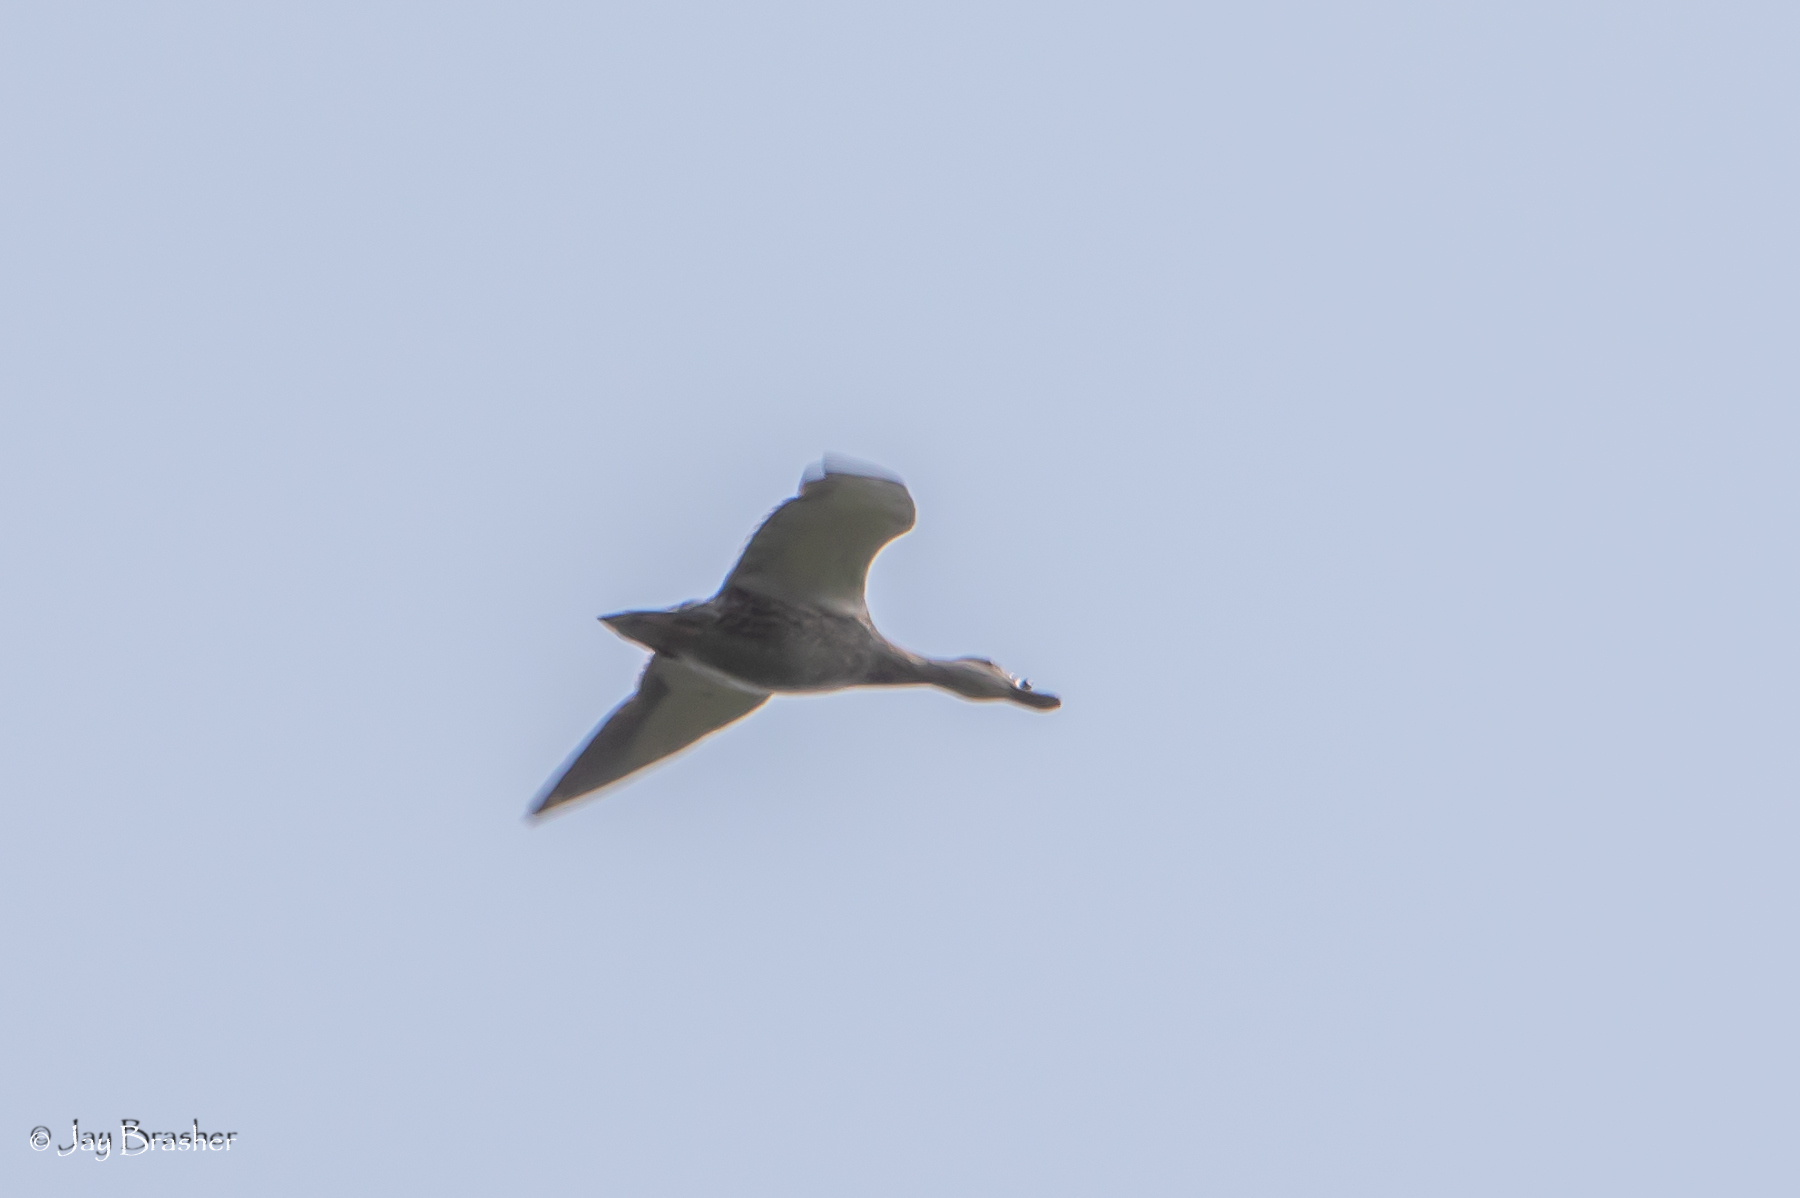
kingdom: Animalia
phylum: Chordata
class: Aves
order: Anseriformes
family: Anatidae
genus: Spatula
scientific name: Spatula clypeata
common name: Northern shoveler
